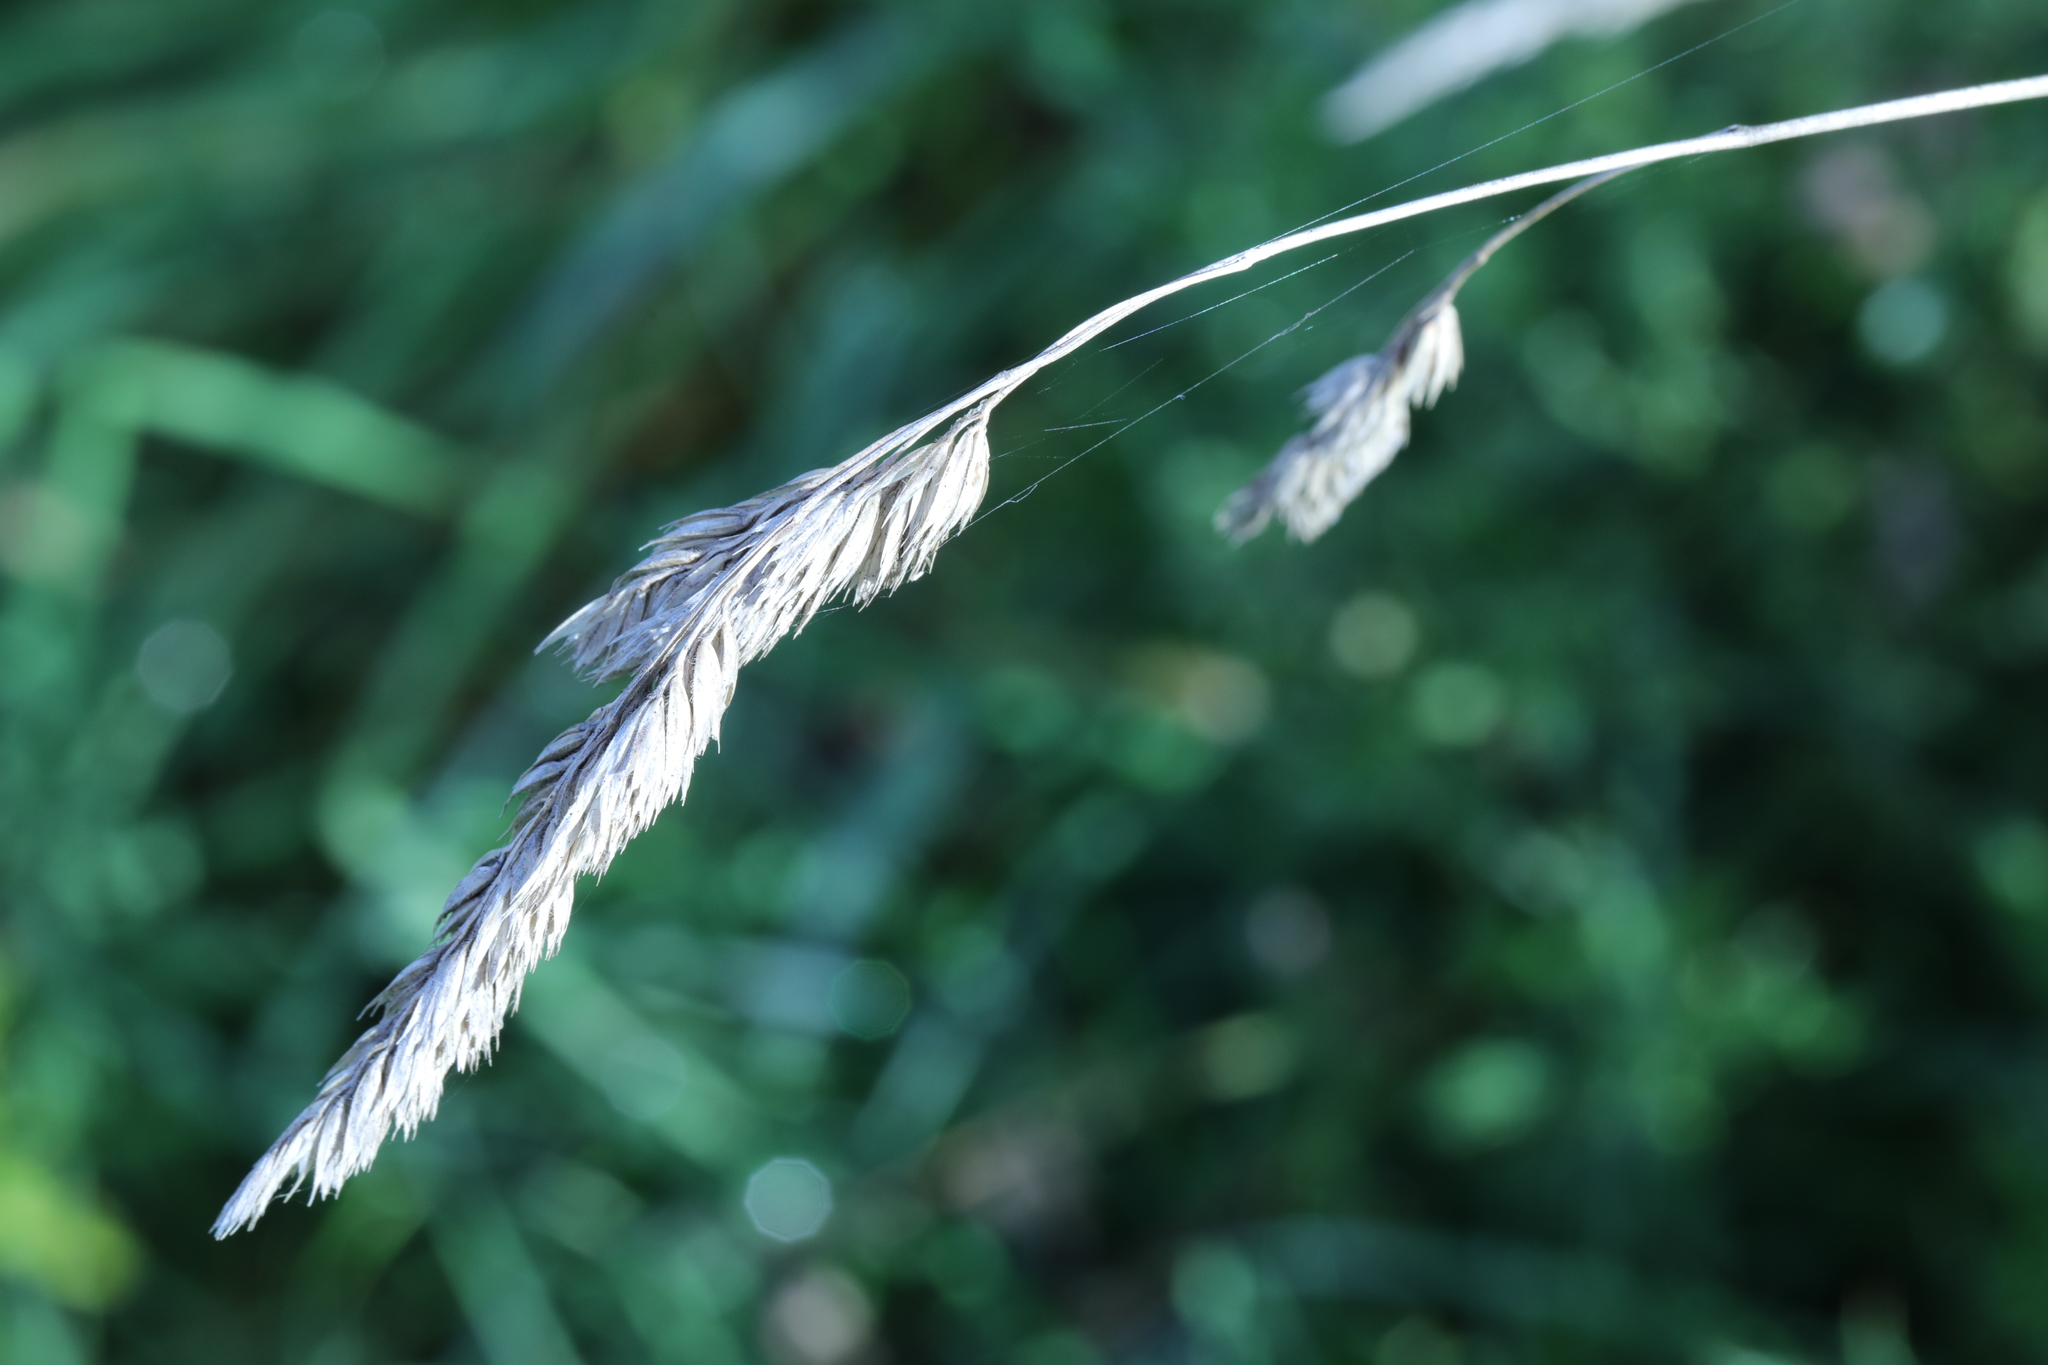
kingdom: Plantae
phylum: Tracheophyta
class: Liliopsida
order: Poales
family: Poaceae
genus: Dactylis
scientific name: Dactylis glomerata
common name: Orchardgrass
